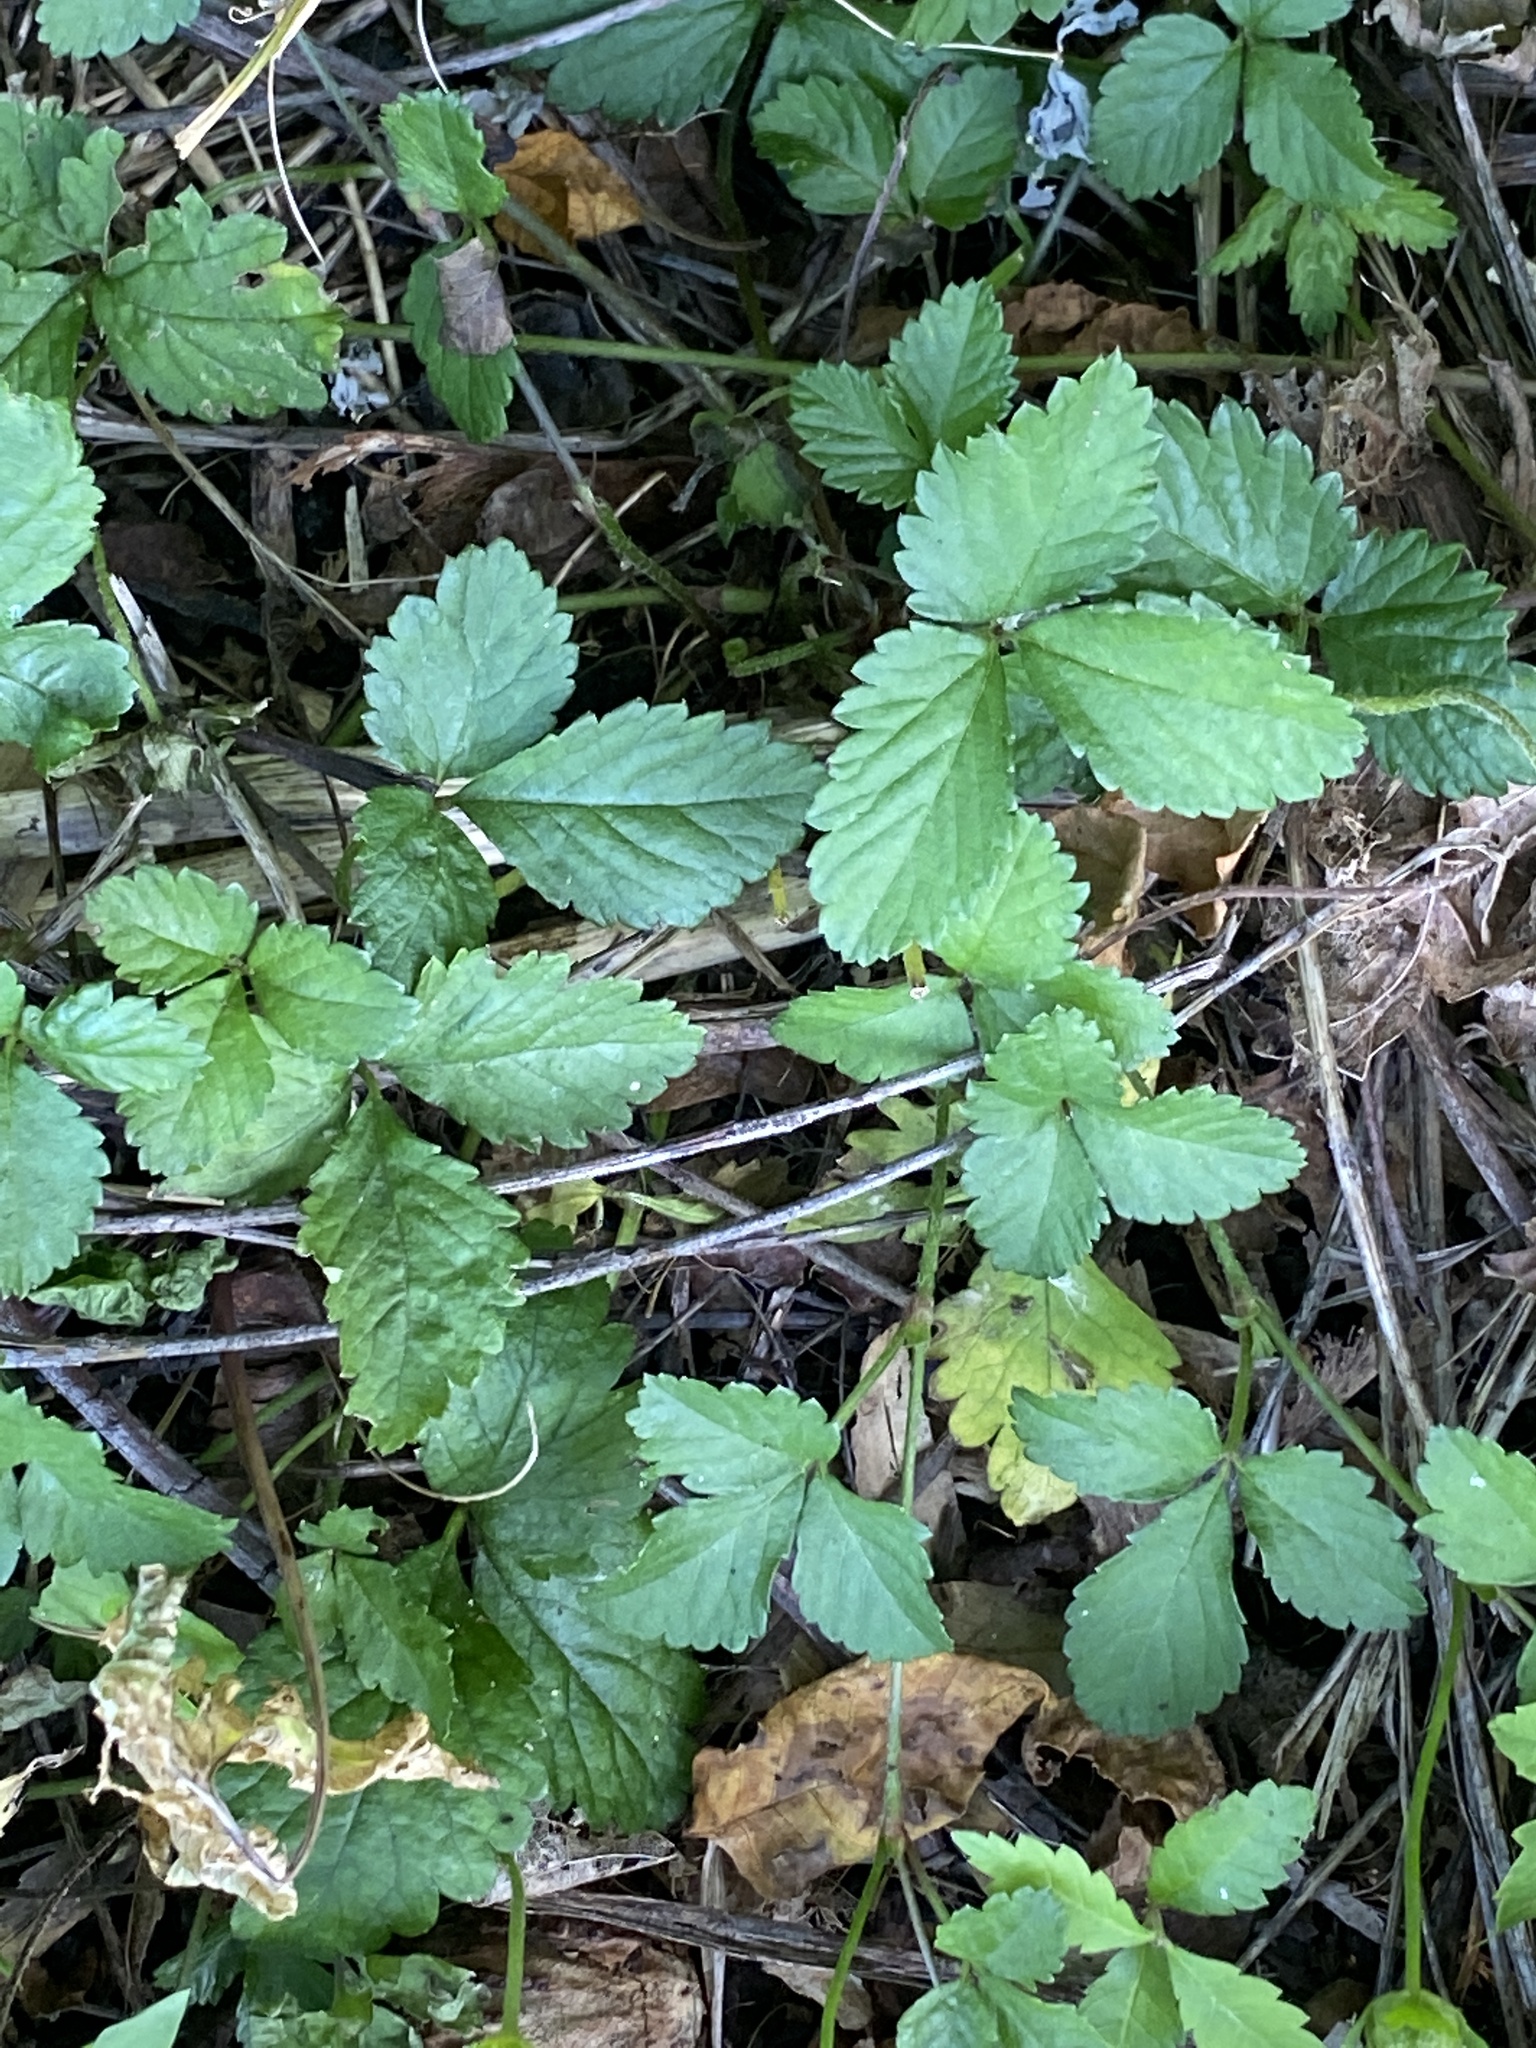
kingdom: Plantae
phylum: Tracheophyta
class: Magnoliopsida
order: Rosales
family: Rosaceae
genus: Potentilla
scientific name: Potentilla indica
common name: Yellow-flowered strawberry
